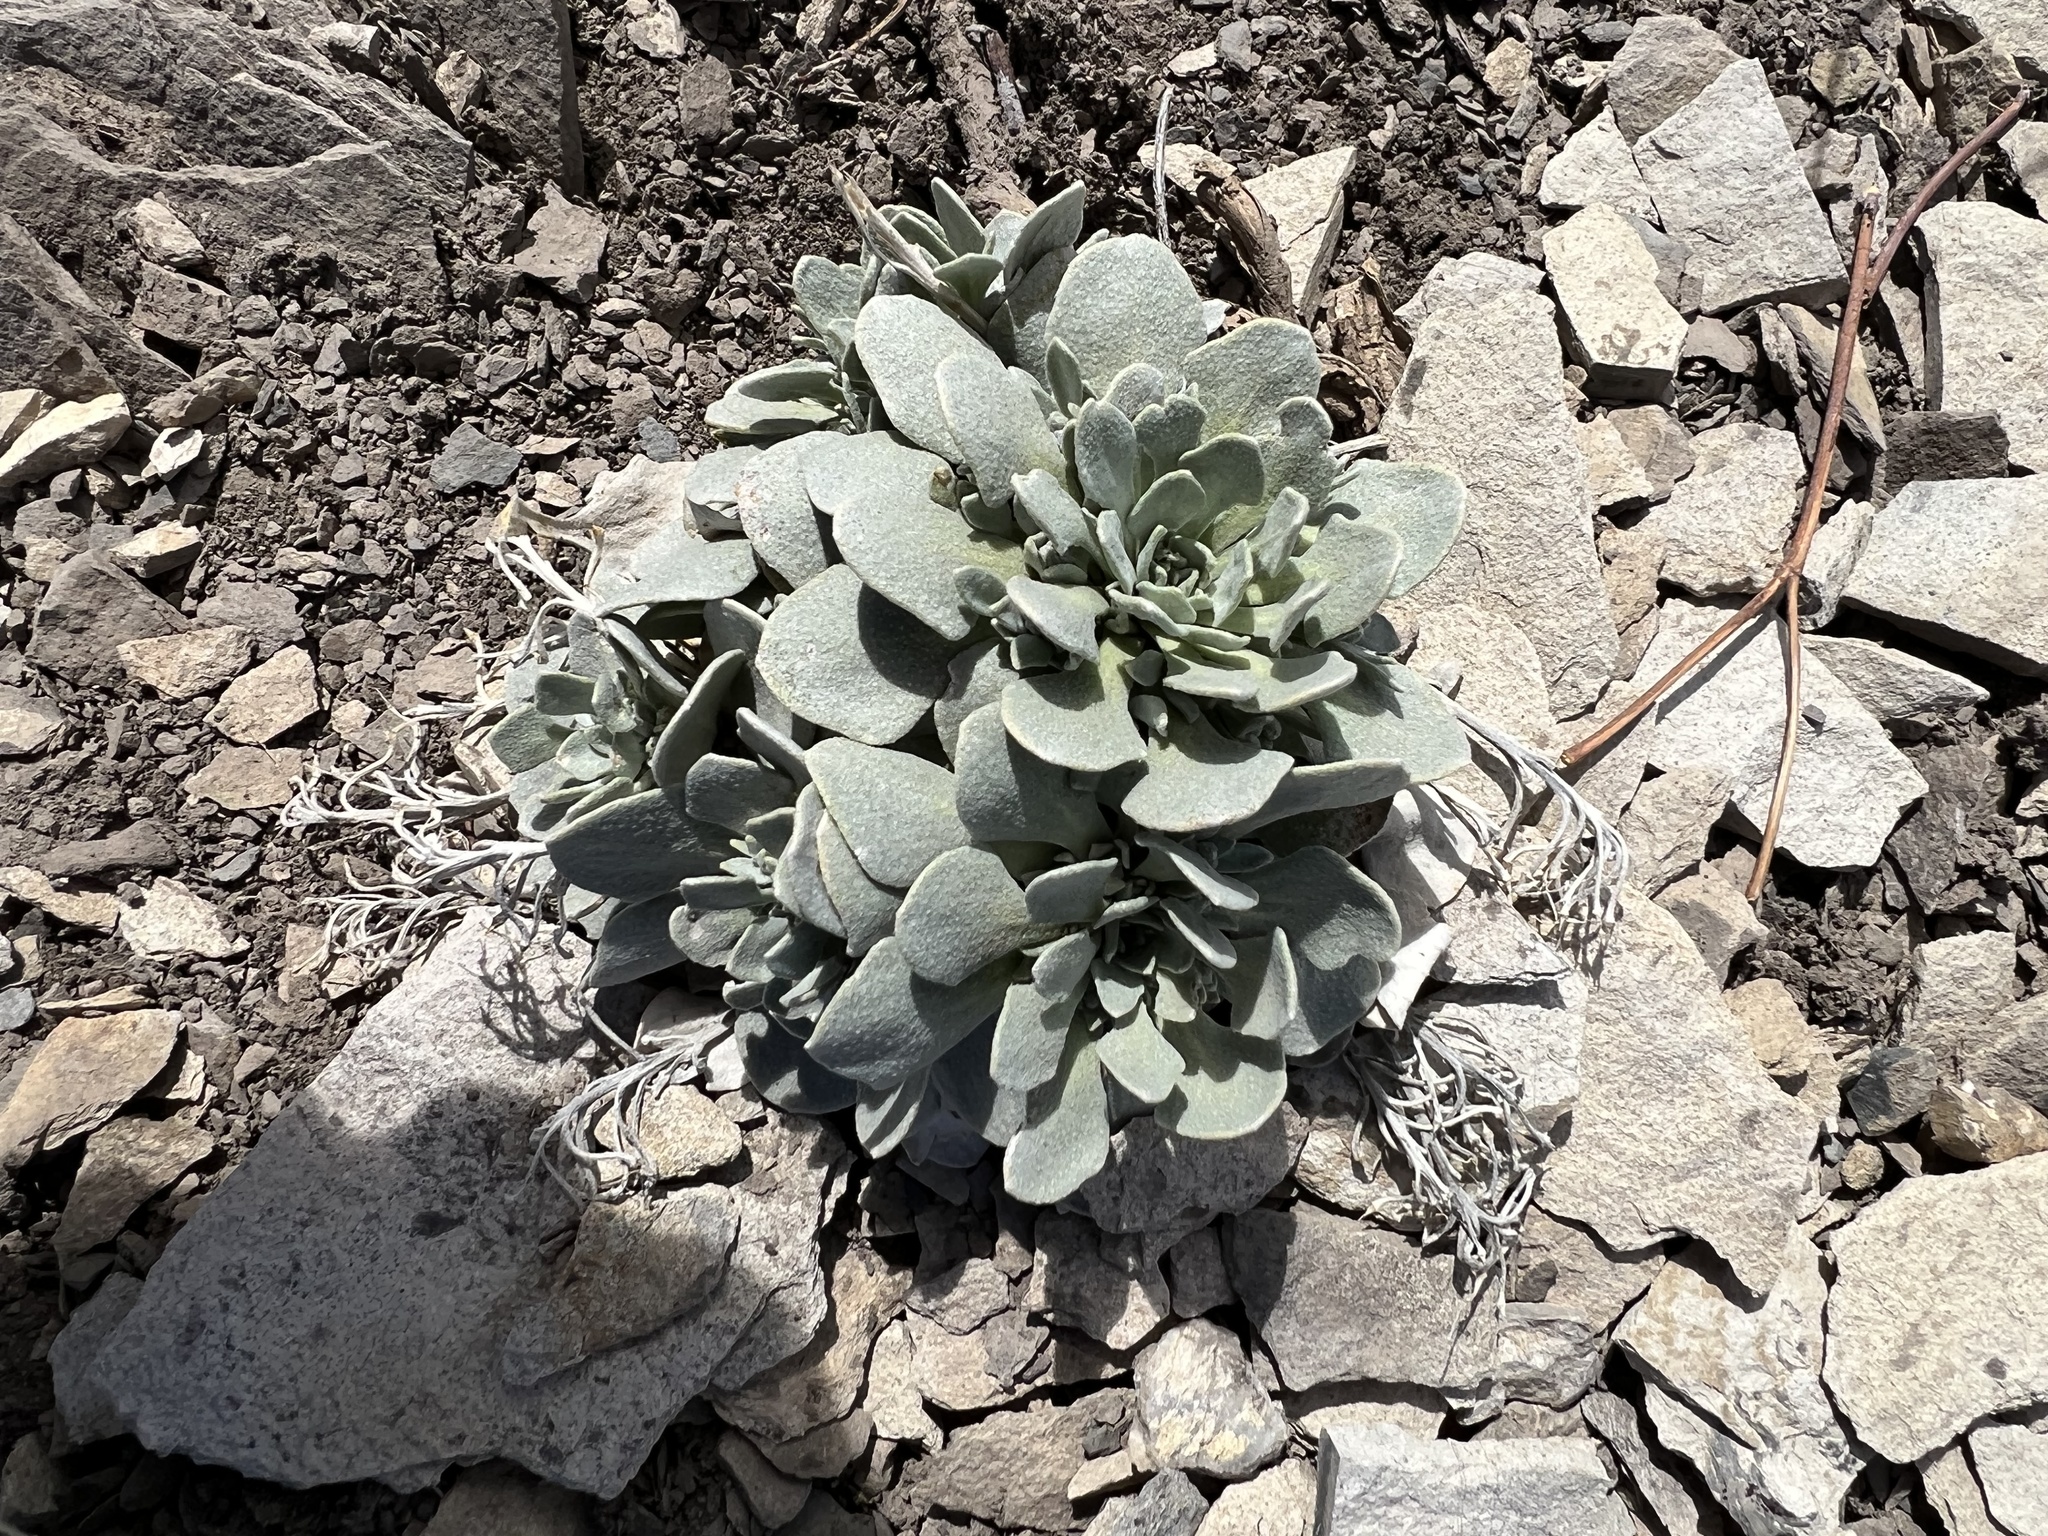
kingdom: Plantae
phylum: Tracheophyta
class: Magnoliopsida
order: Brassicales
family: Brassicaceae
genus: Physaria
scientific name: Physaria bellii
